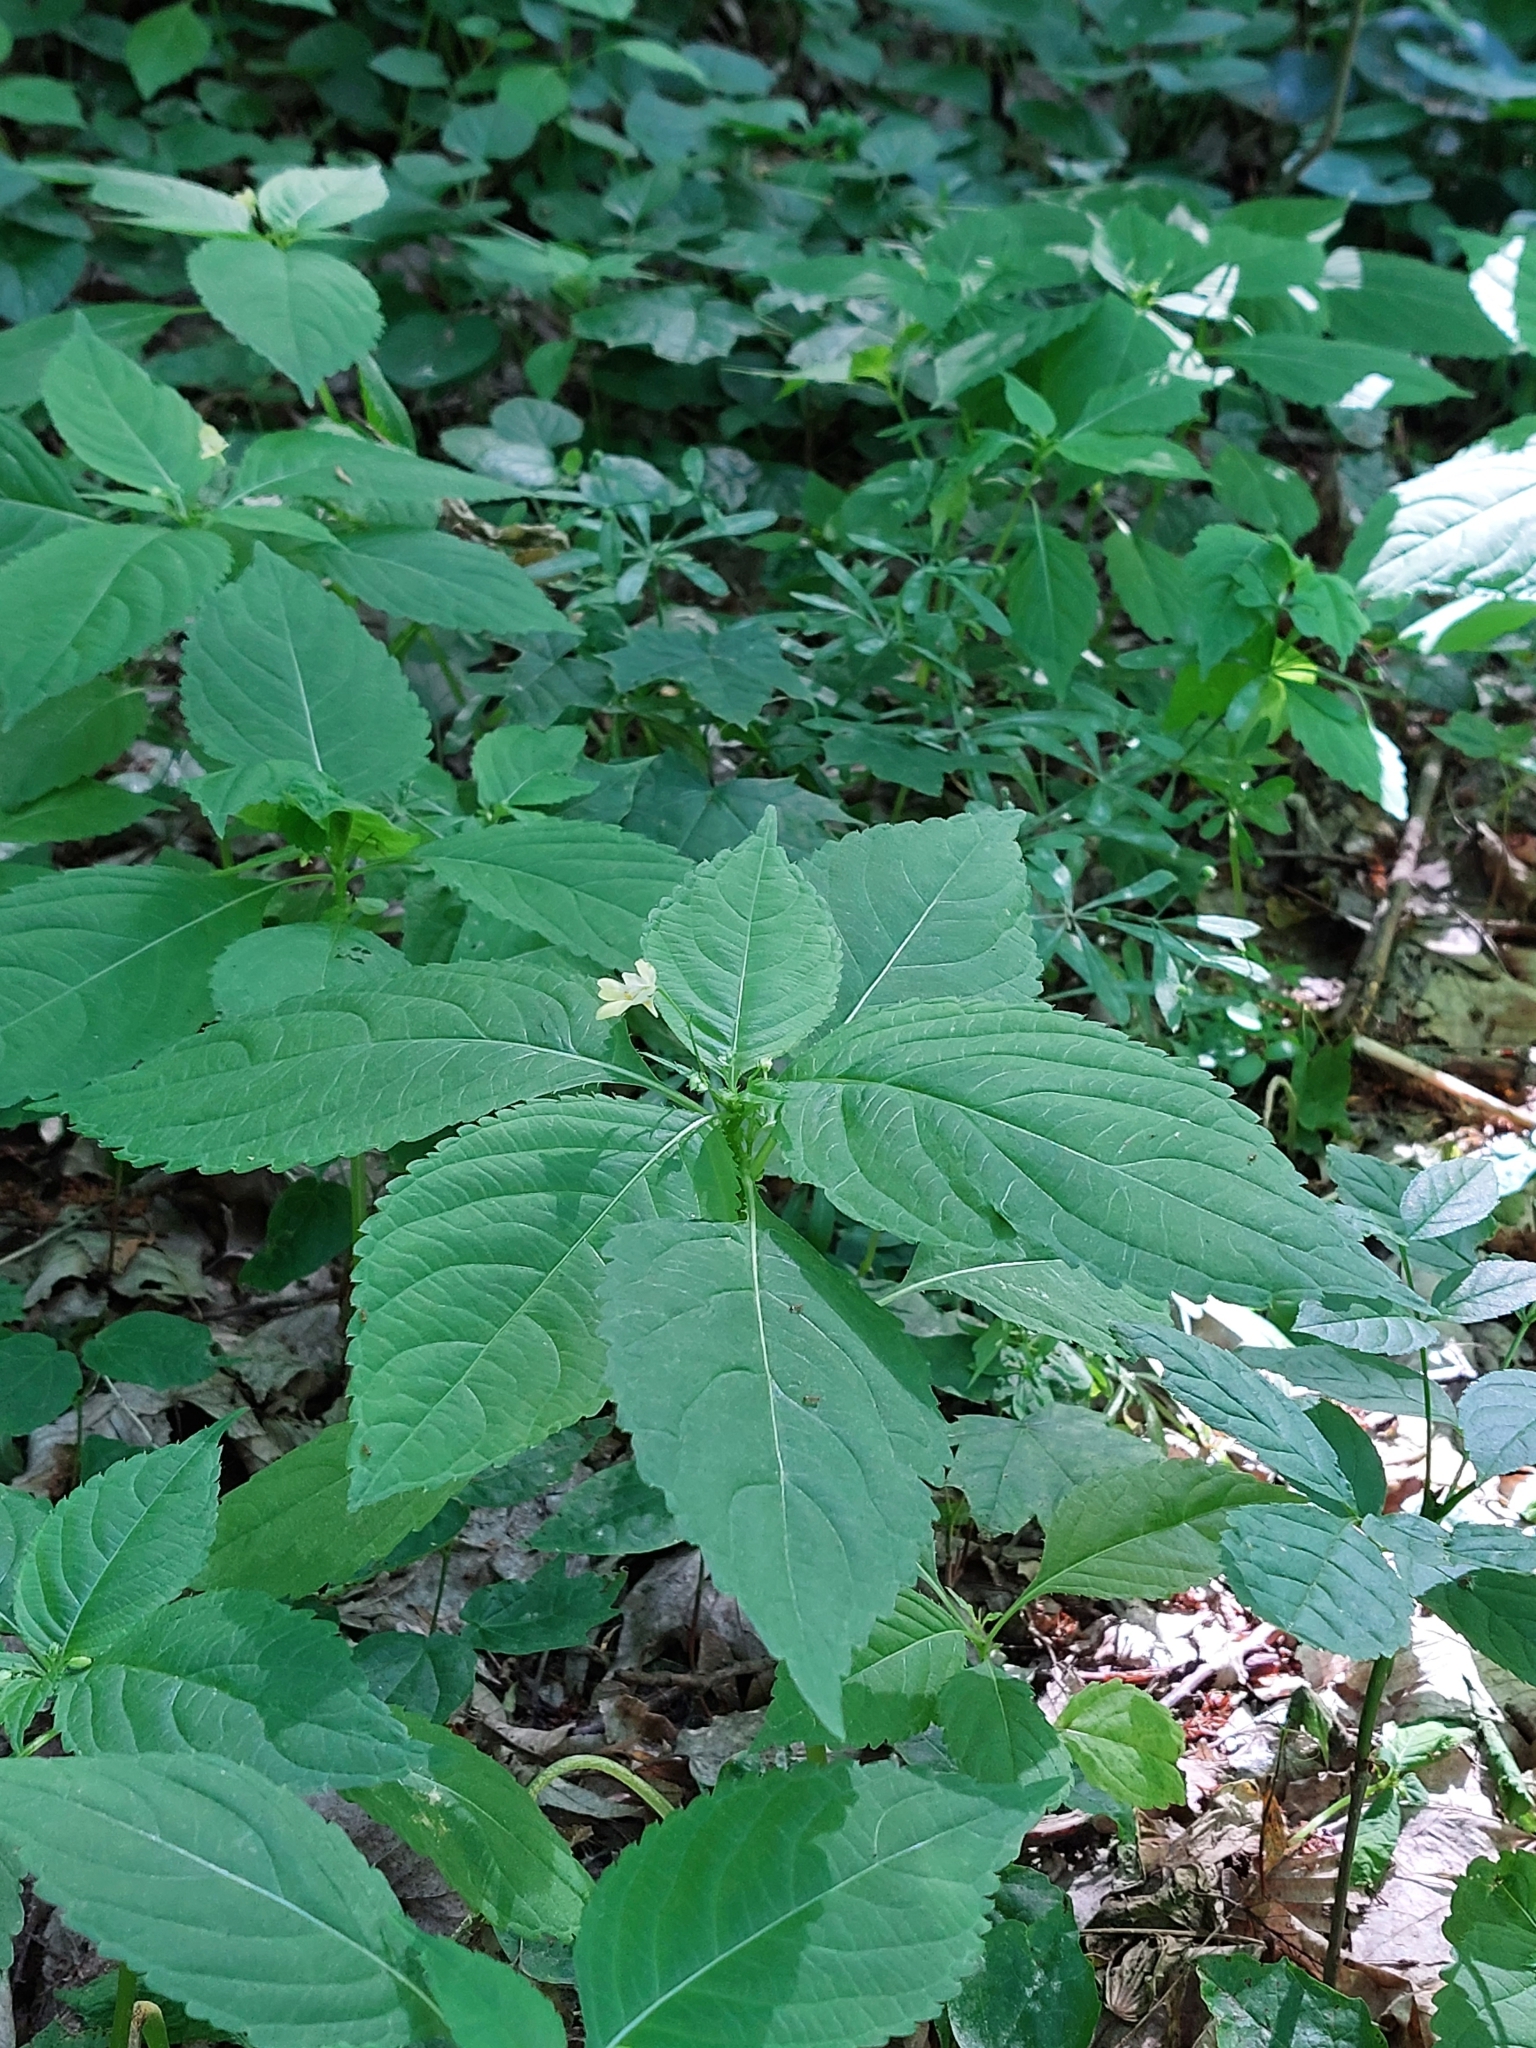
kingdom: Plantae
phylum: Tracheophyta
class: Magnoliopsida
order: Ericales
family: Balsaminaceae
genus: Impatiens
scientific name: Impatiens parviflora
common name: Small balsam
